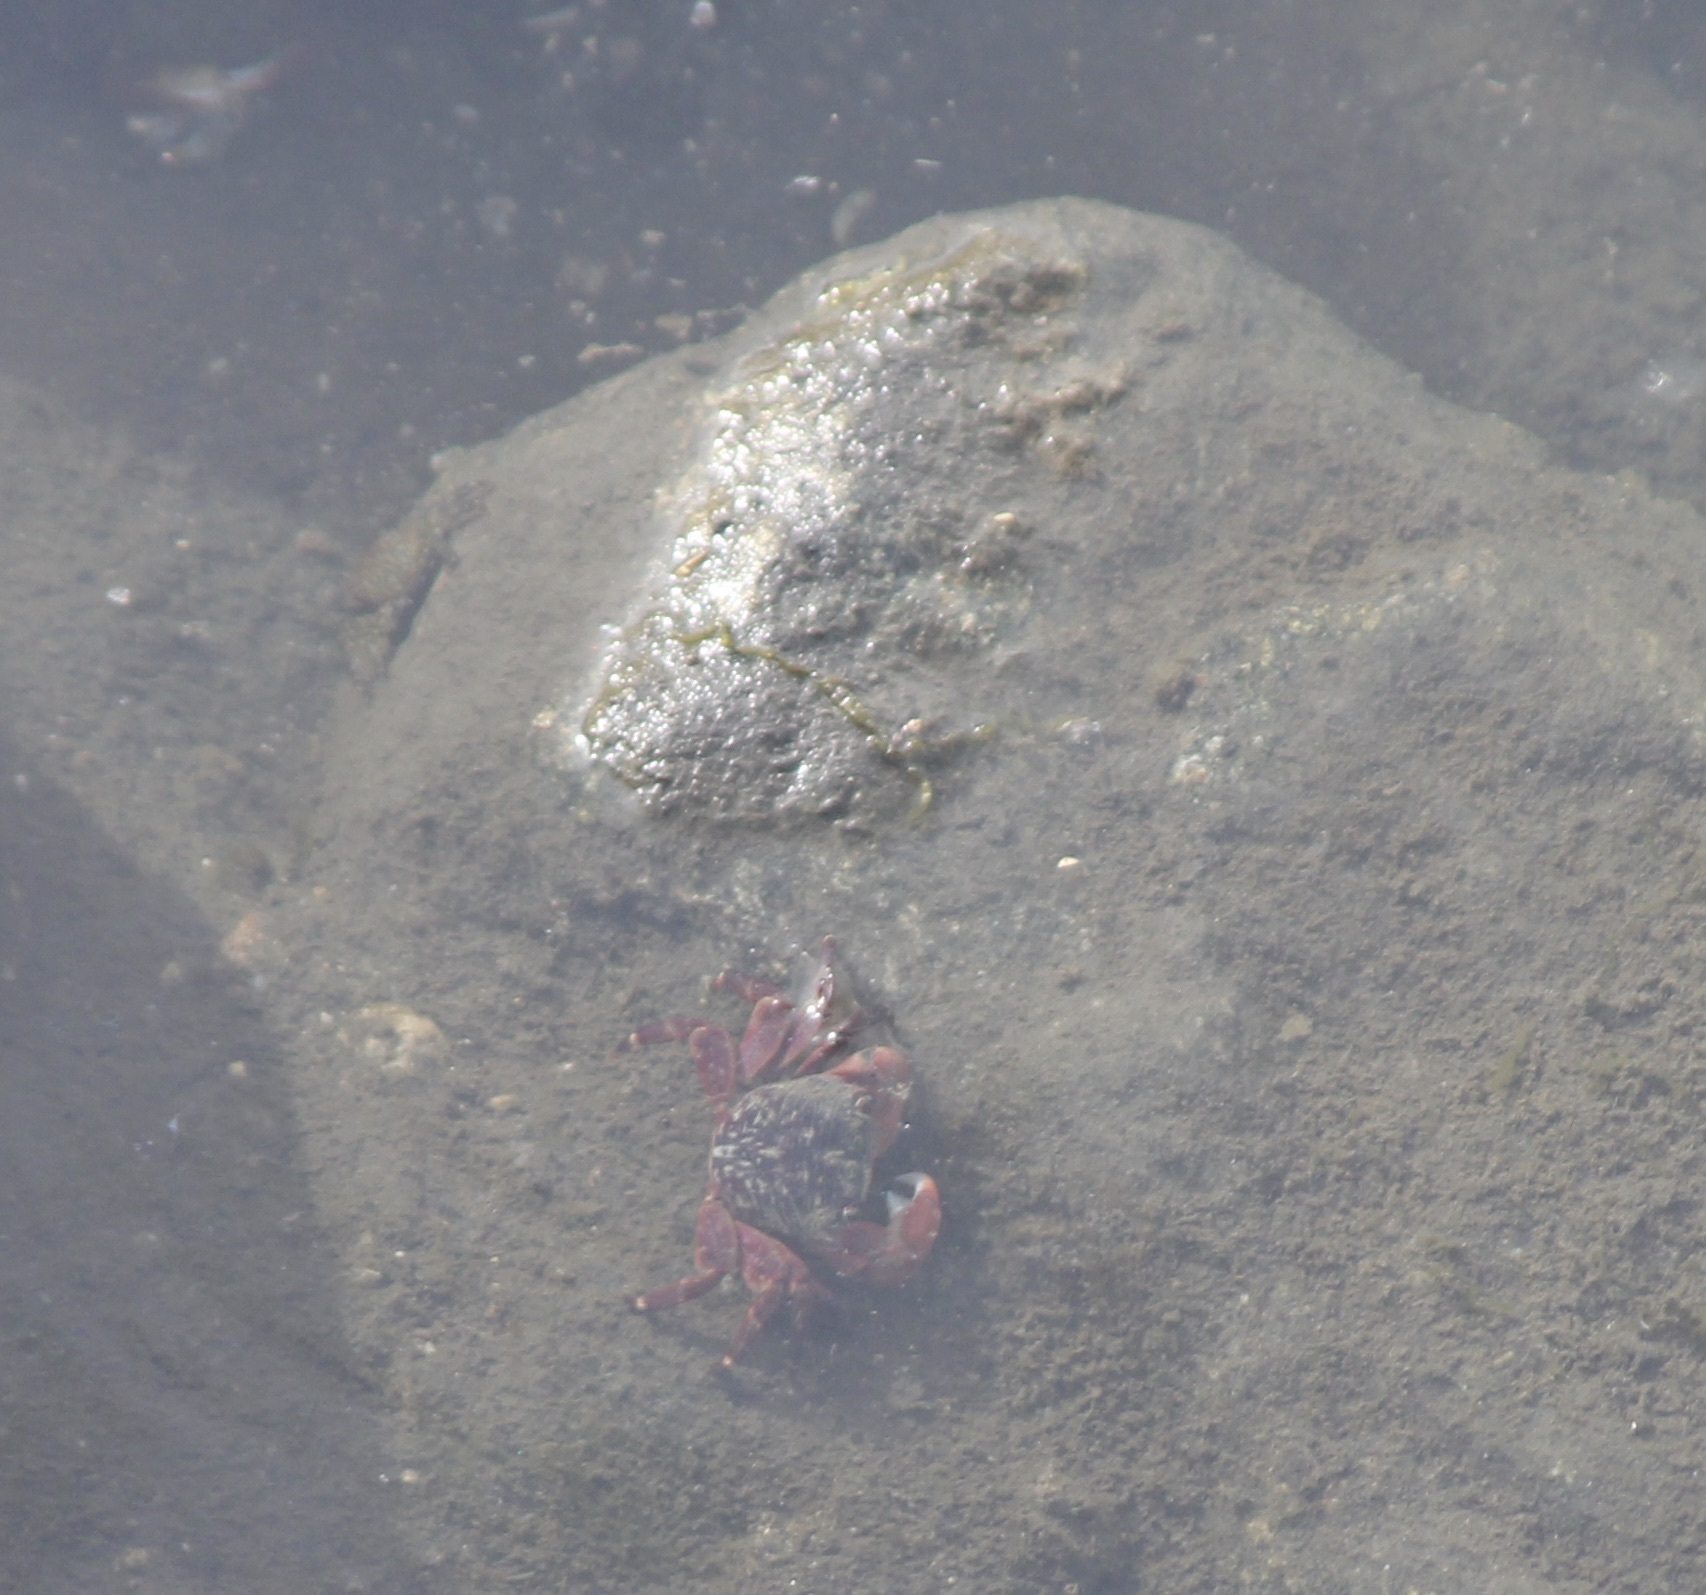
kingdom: Animalia
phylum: Arthropoda
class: Malacostraca
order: Decapoda
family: Grapsidae
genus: Pachygrapsus
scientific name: Pachygrapsus crassipes
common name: Striped shore crab
